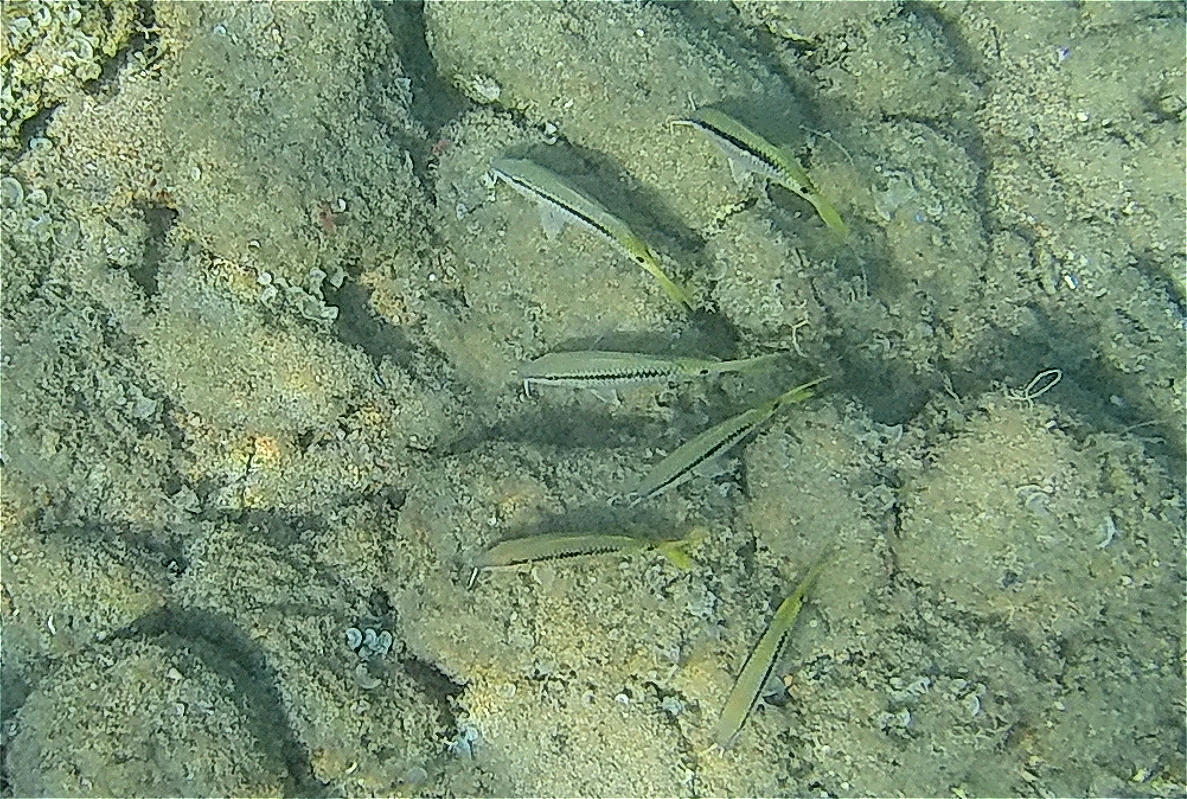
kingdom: Animalia
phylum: Chordata
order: Perciformes
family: Mullidae
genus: Parupeneus
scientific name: Parupeneus forsskali
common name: Red sea goatfish
